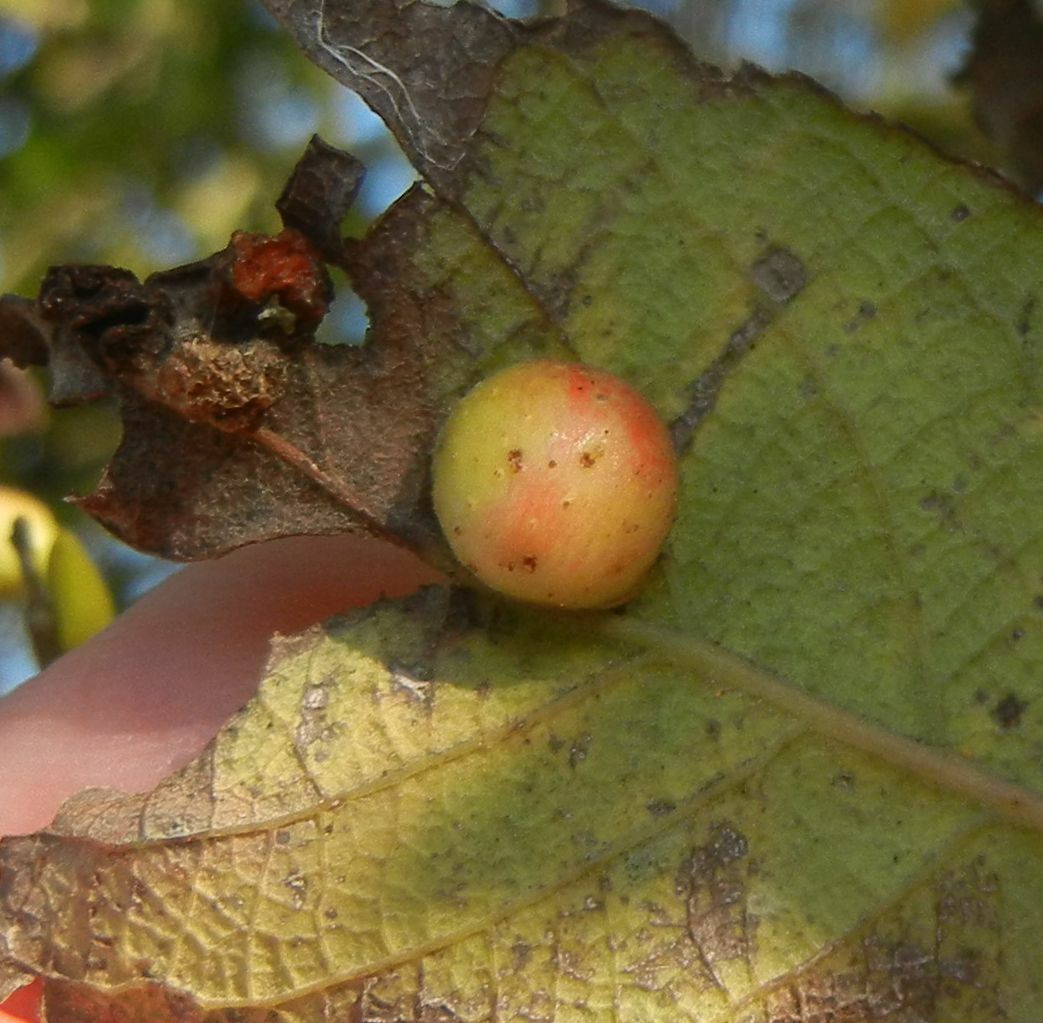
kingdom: Animalia
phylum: Arthropoda
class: Insecta
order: Hymenoptera
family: Tenthredinidae
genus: Pontania
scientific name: Pontania pedunculi
